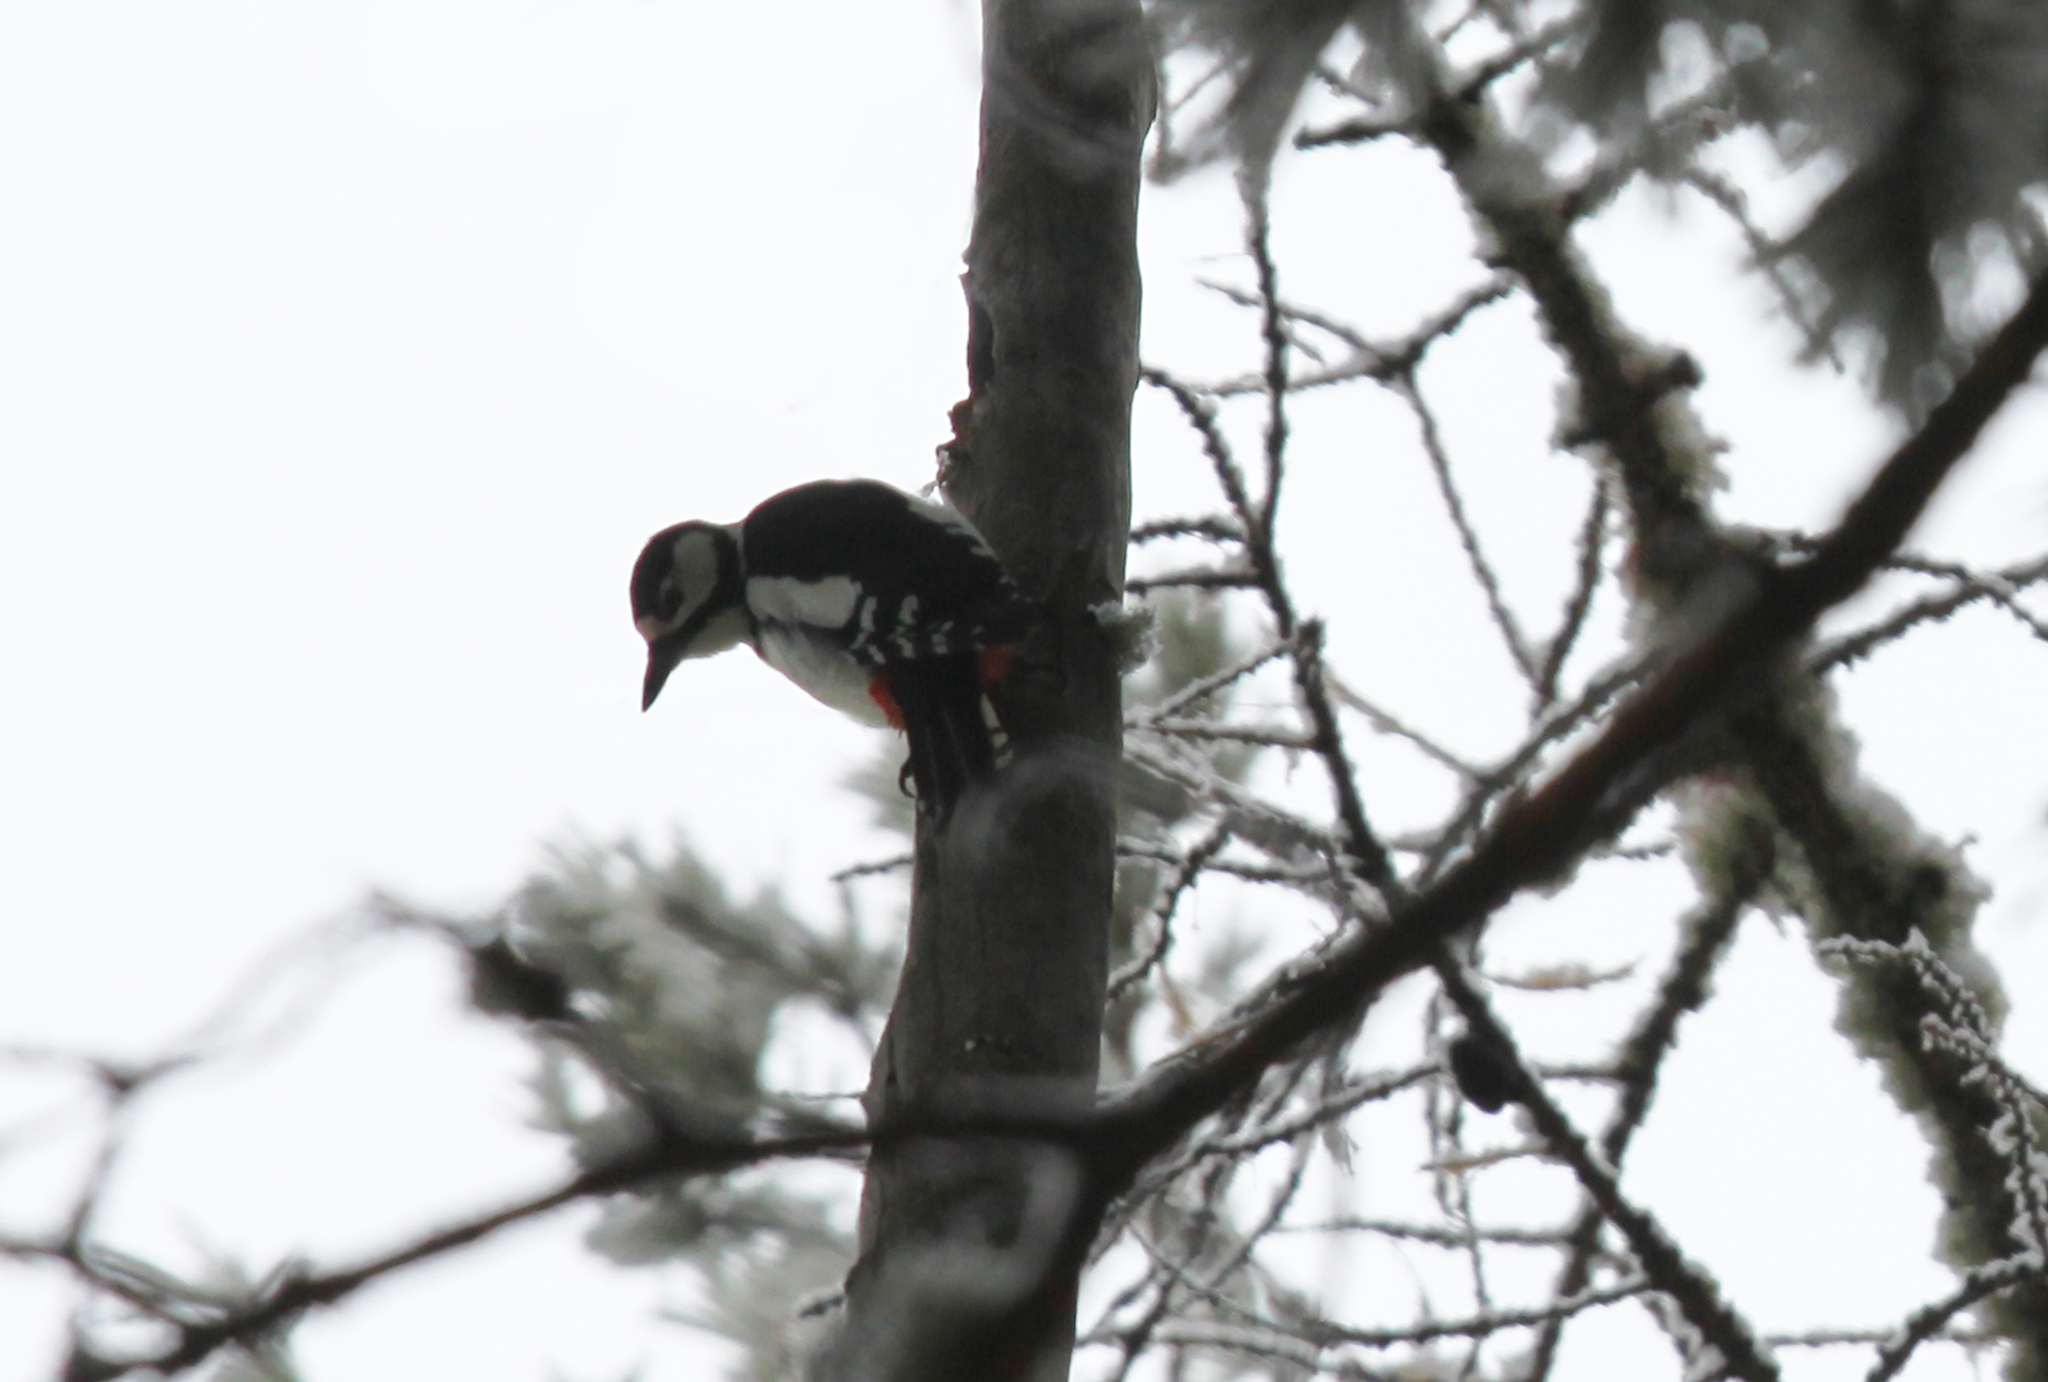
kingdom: Animalia
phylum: Chordata
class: Aves
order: Piciformes
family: Picidae
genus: Dendrocopos
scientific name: Dendrocopos major
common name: Great spotted woodpecker
